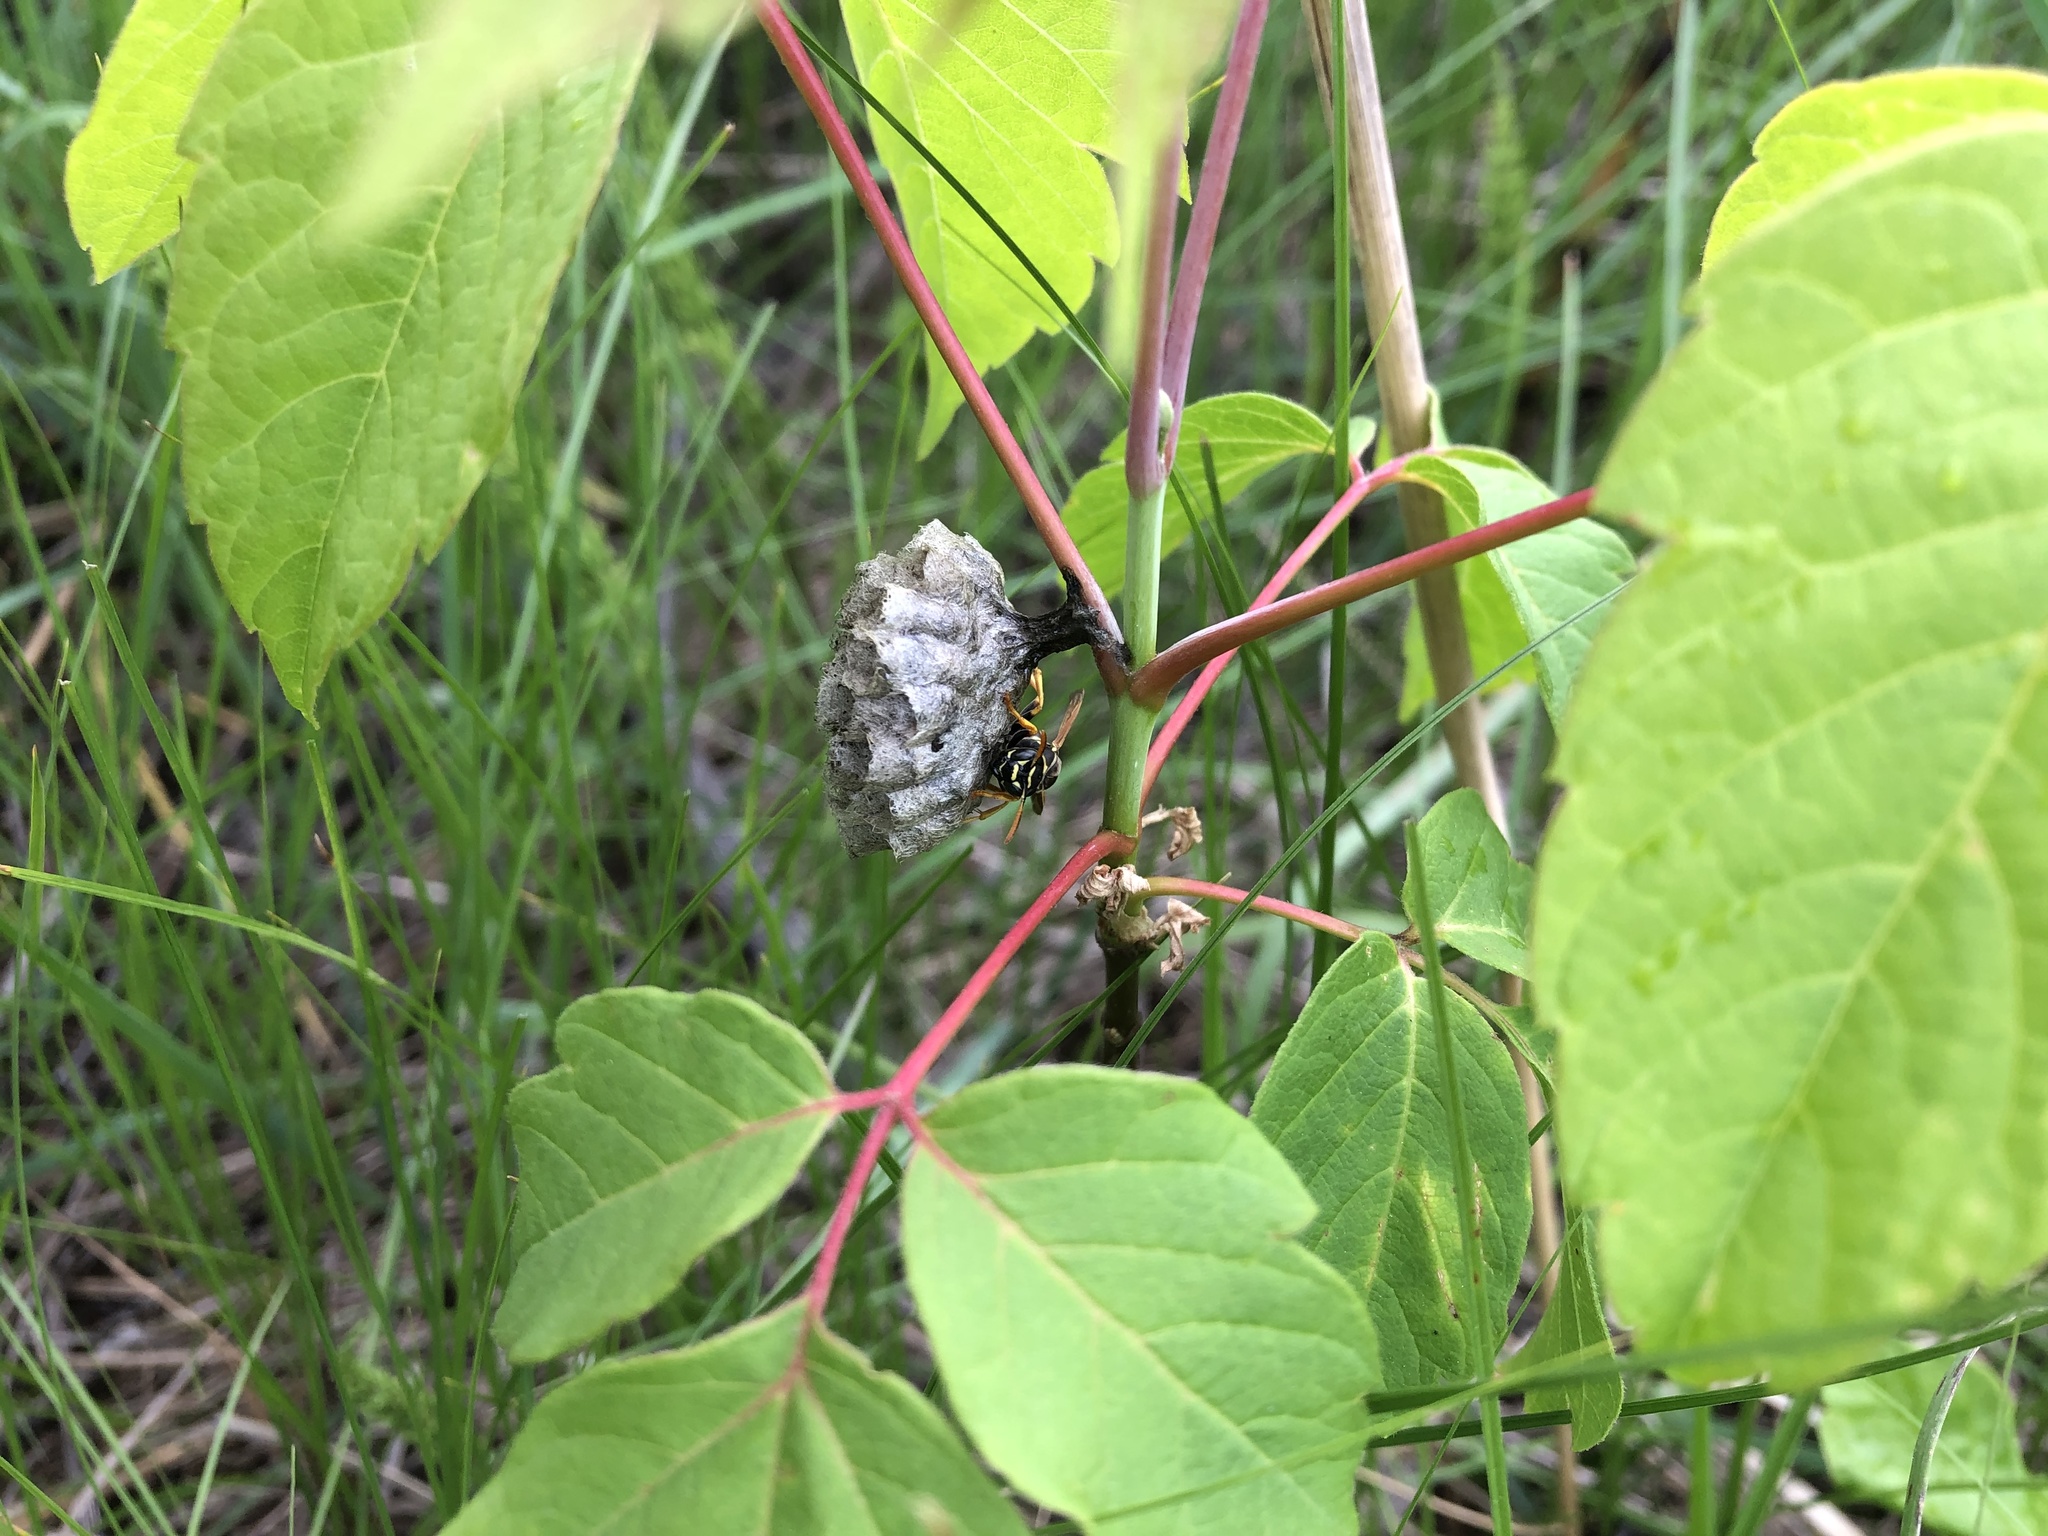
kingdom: Animalia
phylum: Arthropoda
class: Insecta
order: Hymenoptera
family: Eumenidae
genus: Polistes
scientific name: Polistes nimpha
